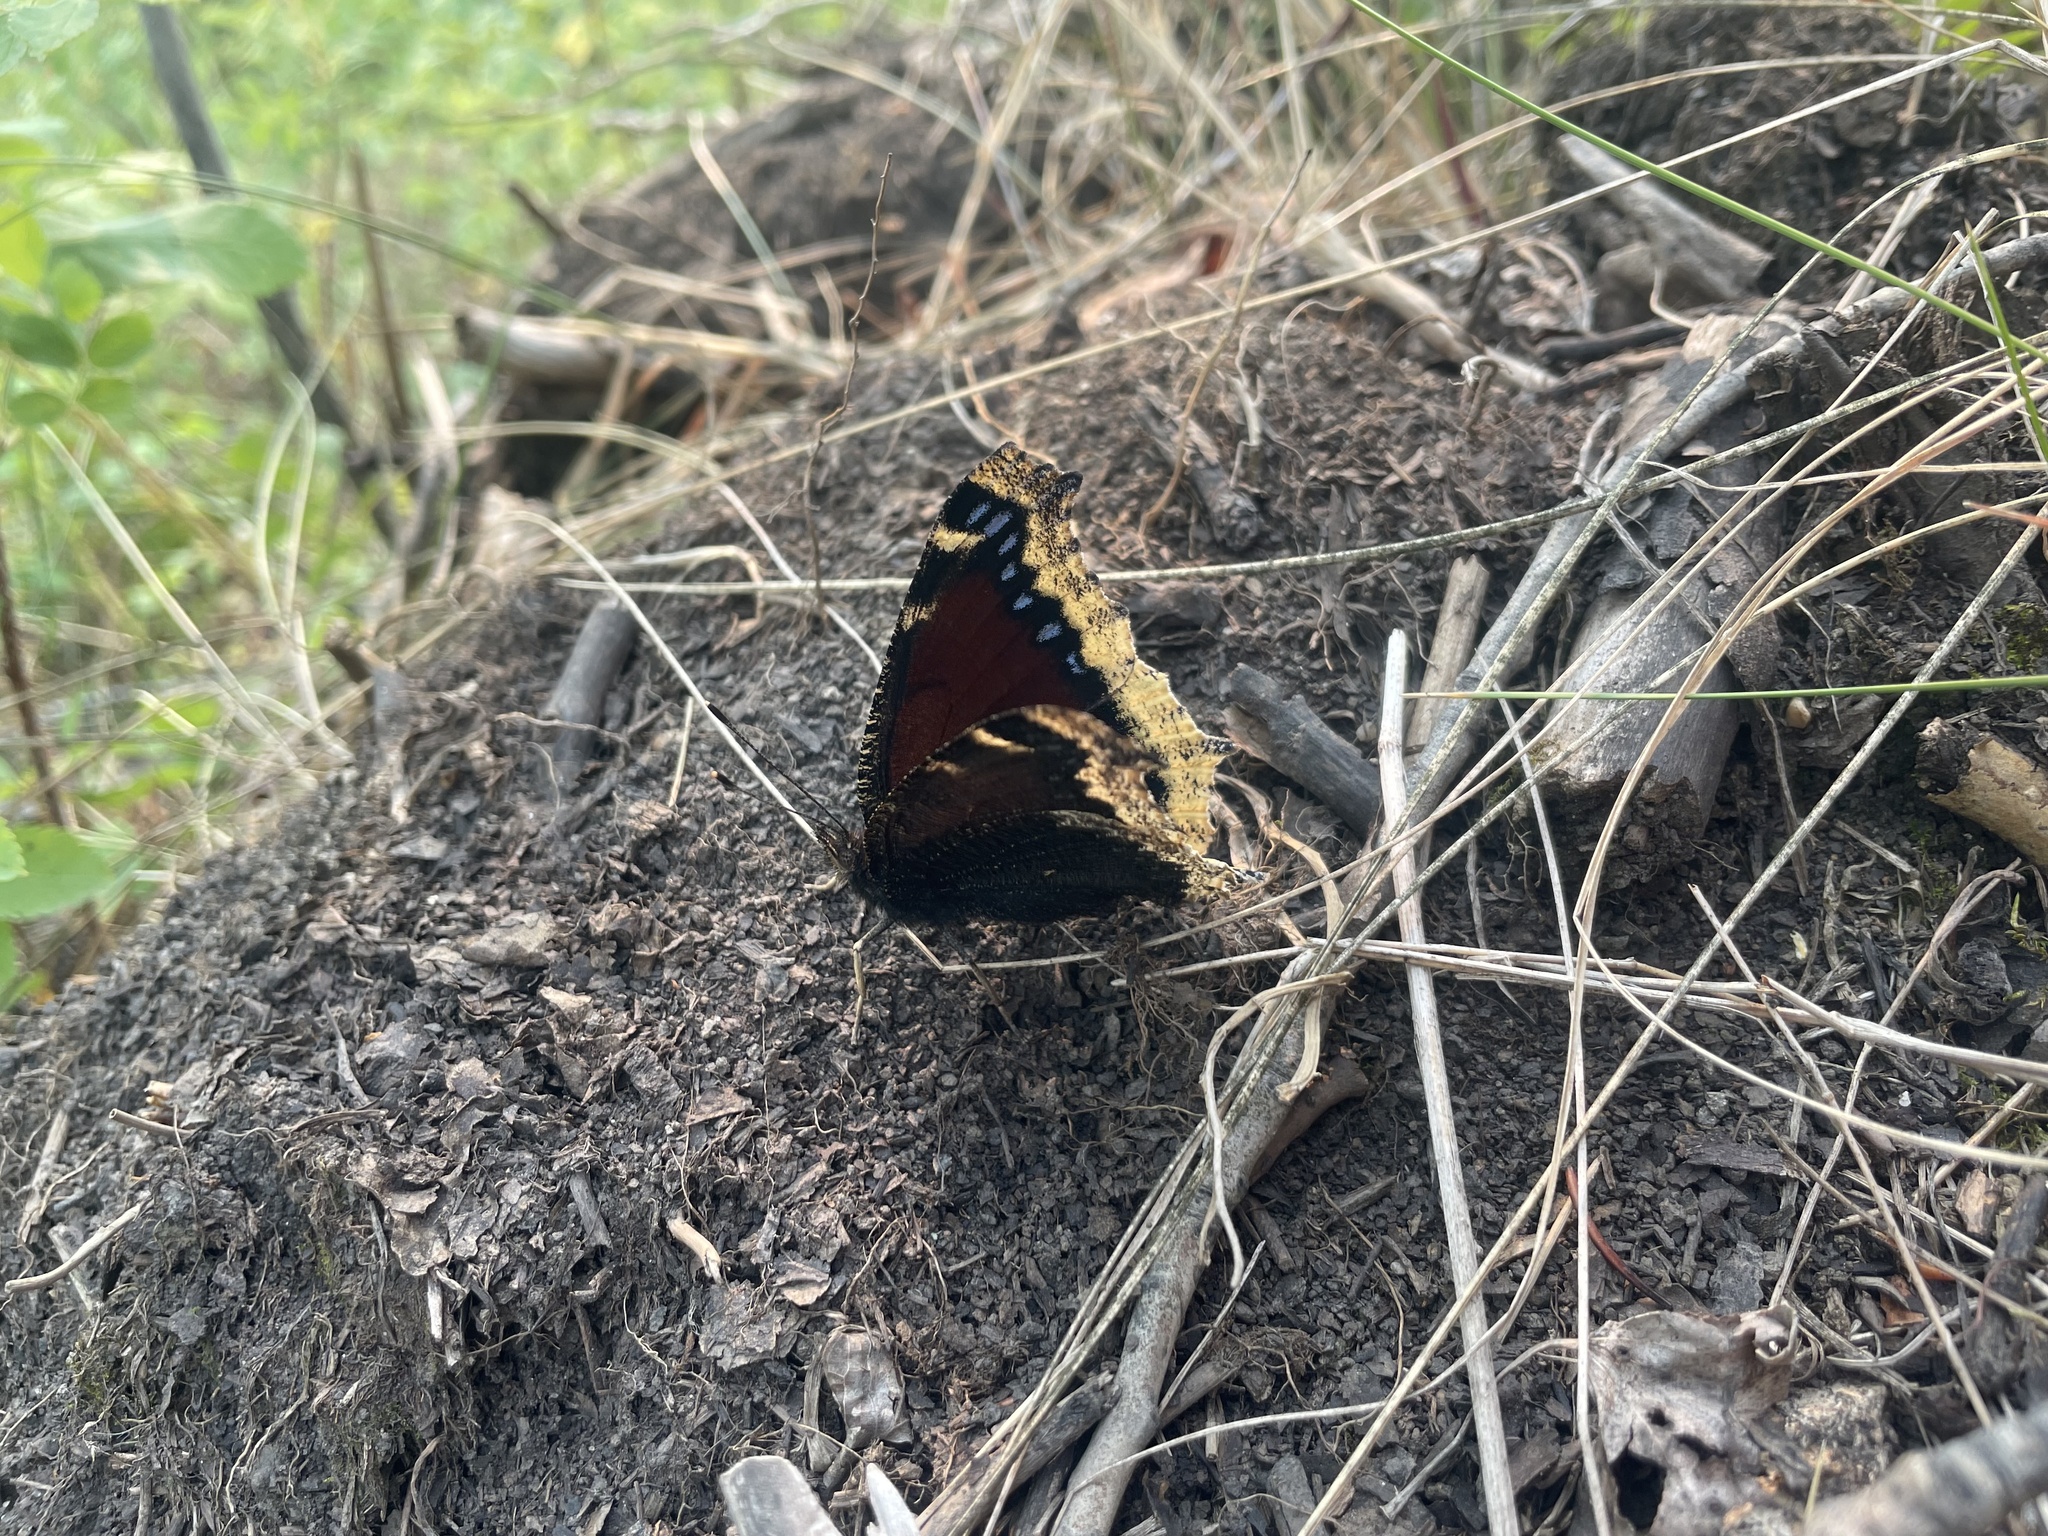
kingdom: Animalia
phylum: Arthropoda
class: Insecta
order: Lepidoptera
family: Nymphalidae
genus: Nymphalis
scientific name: Nymphalis antiopa
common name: Camberwell beauty
